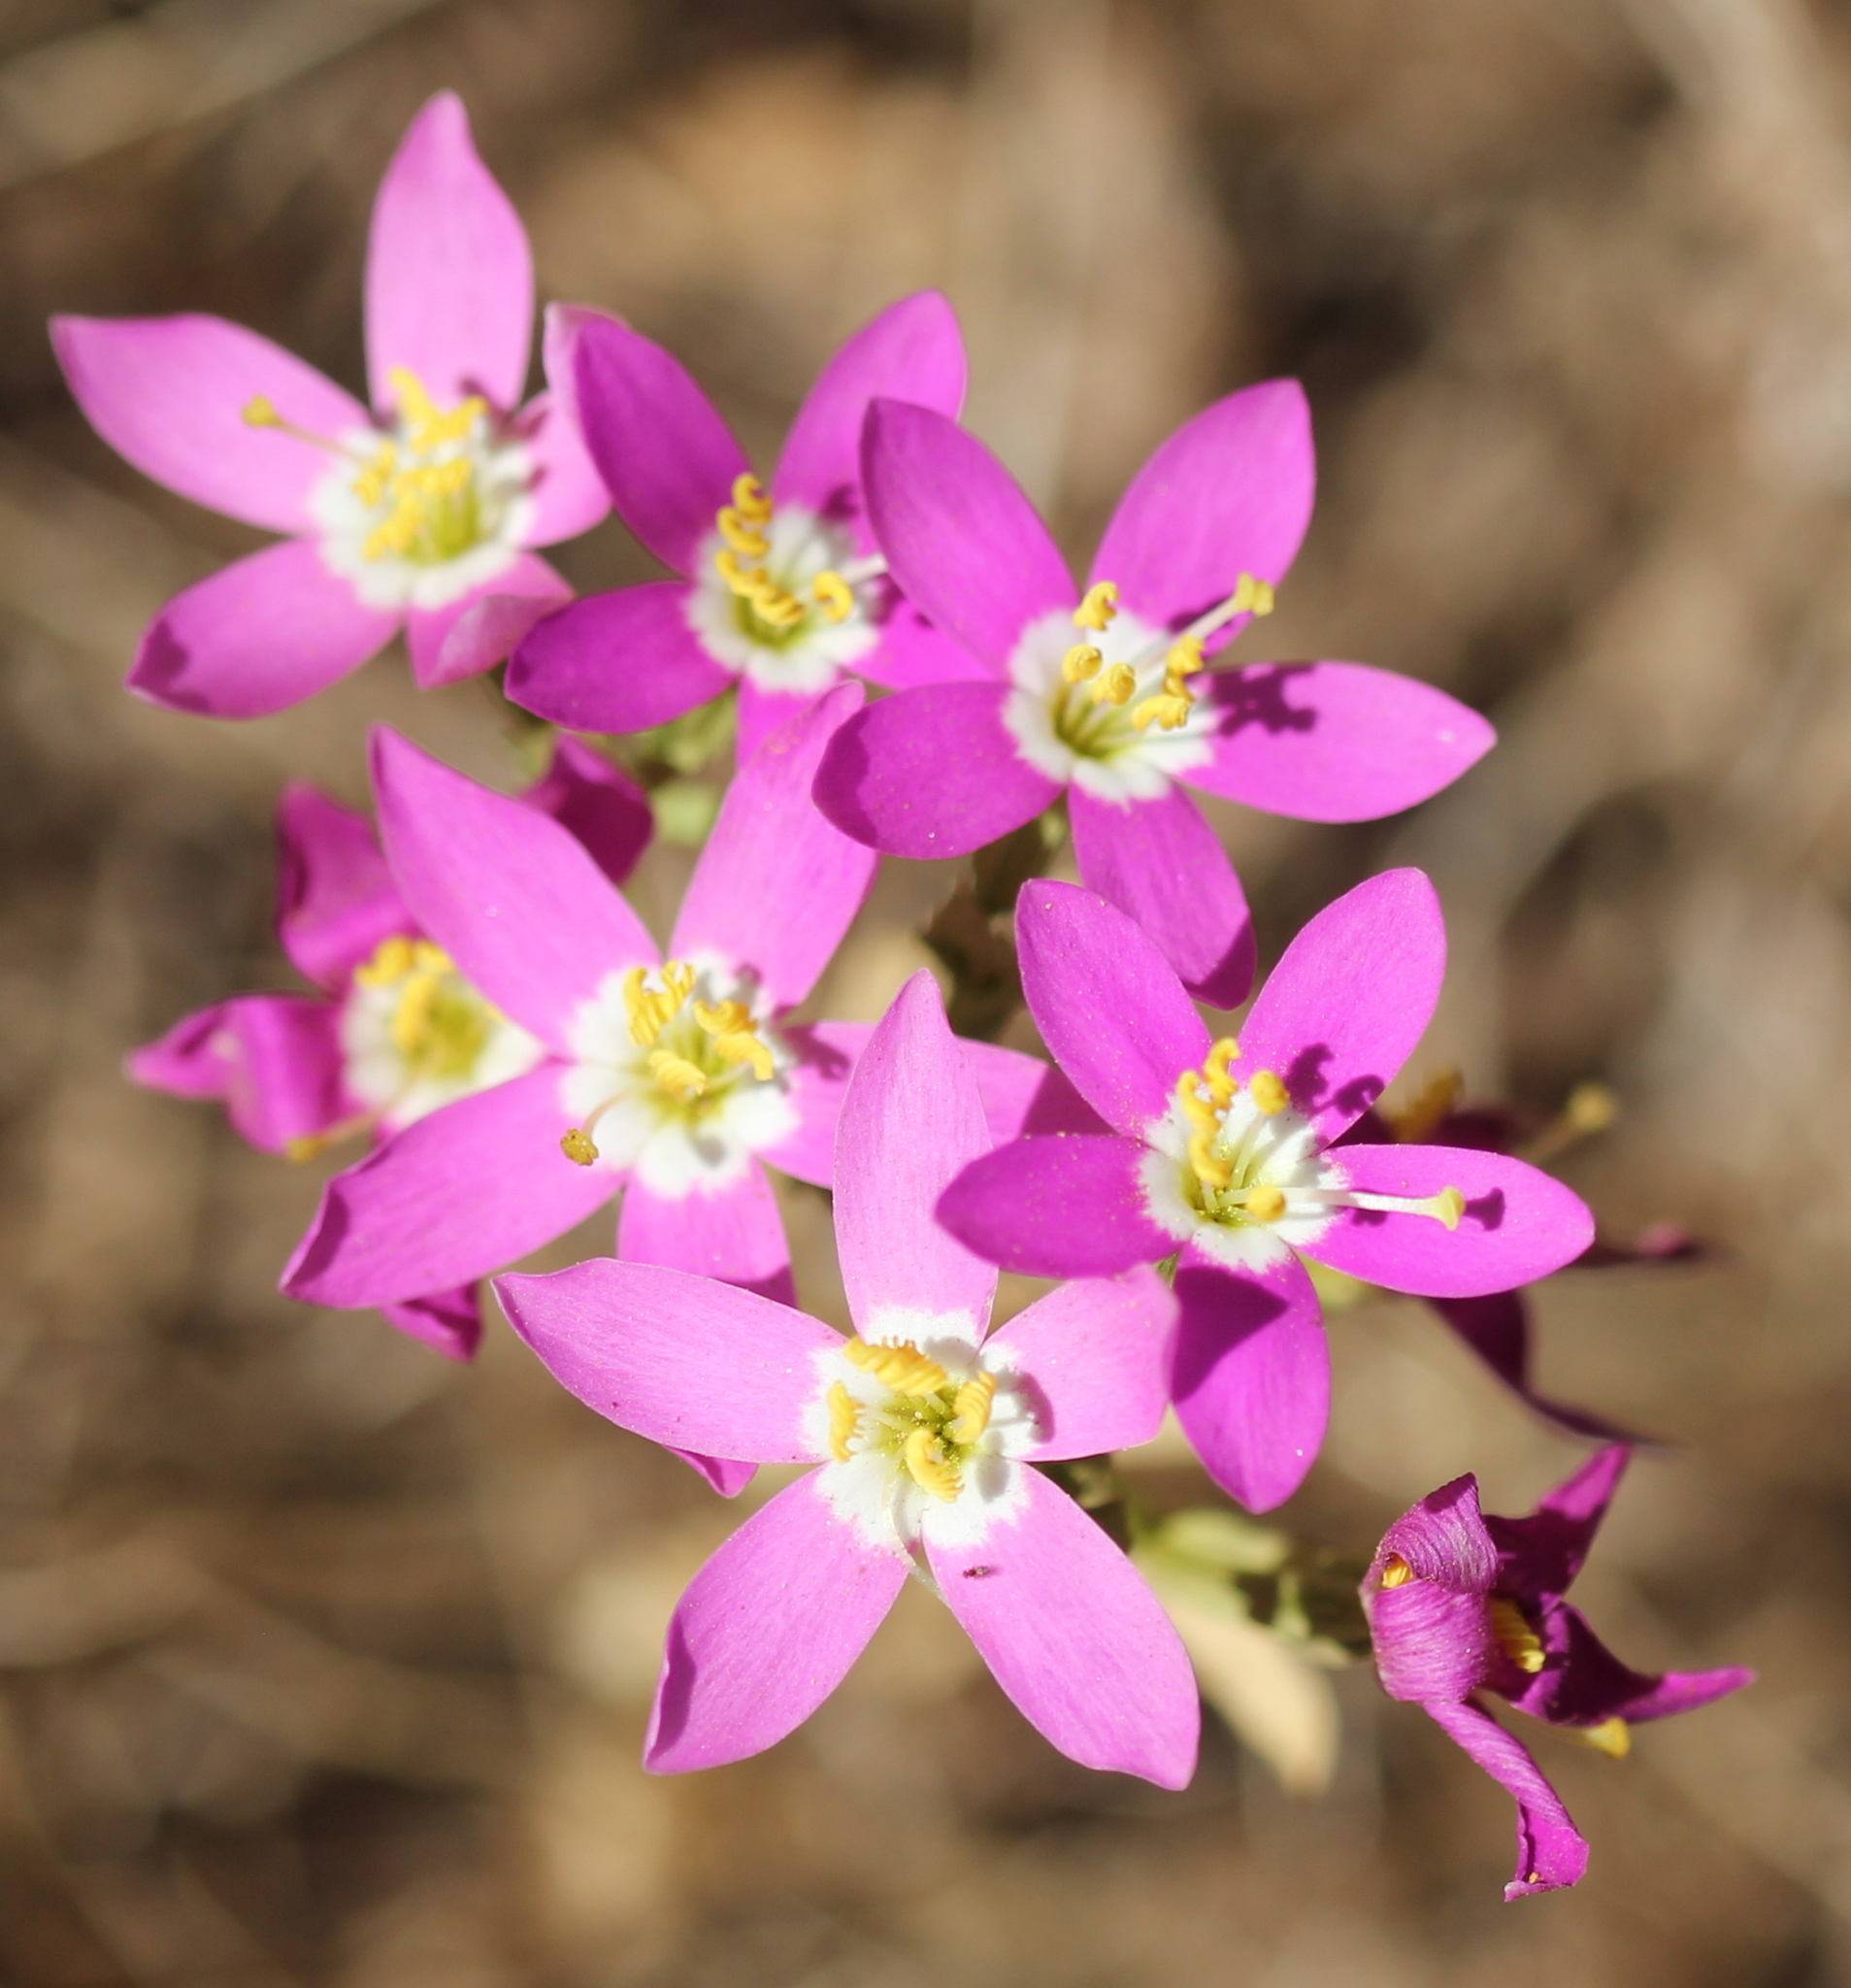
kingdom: Plantae
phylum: Tracheophyta
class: Magnoliopsida
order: Gentianales
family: Gentianaceae
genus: Zeltnera
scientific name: Zeltnera venusta
